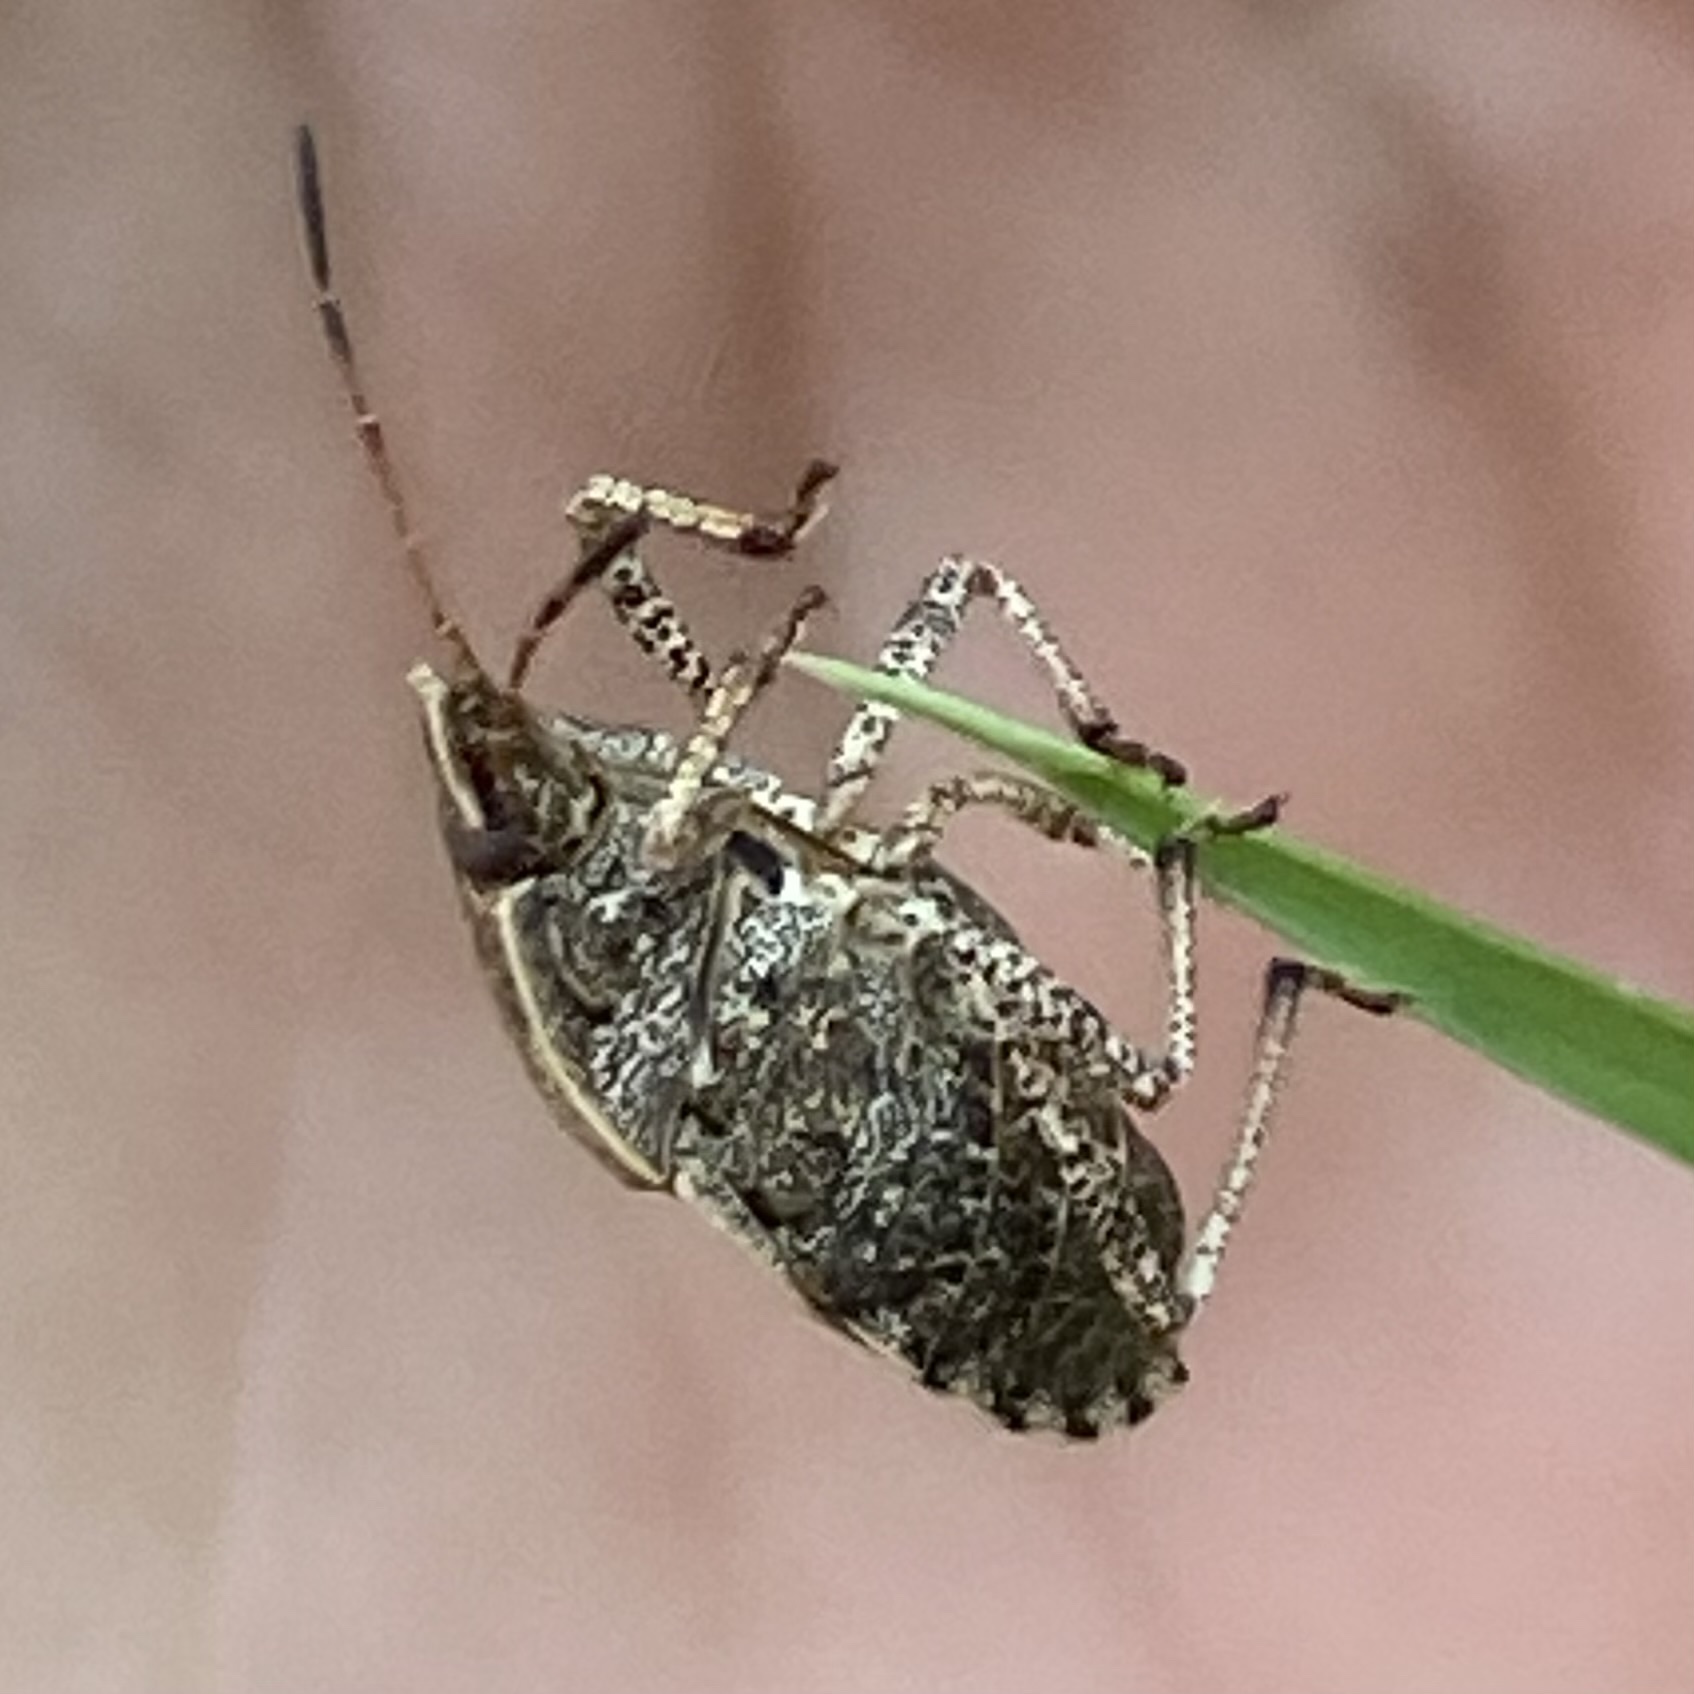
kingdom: Animalia
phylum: Arthropoda
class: Insecta
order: Hemiptera
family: Pentatomidae
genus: Menecles
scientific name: Menecles insertus
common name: Elf shoe stink bug
